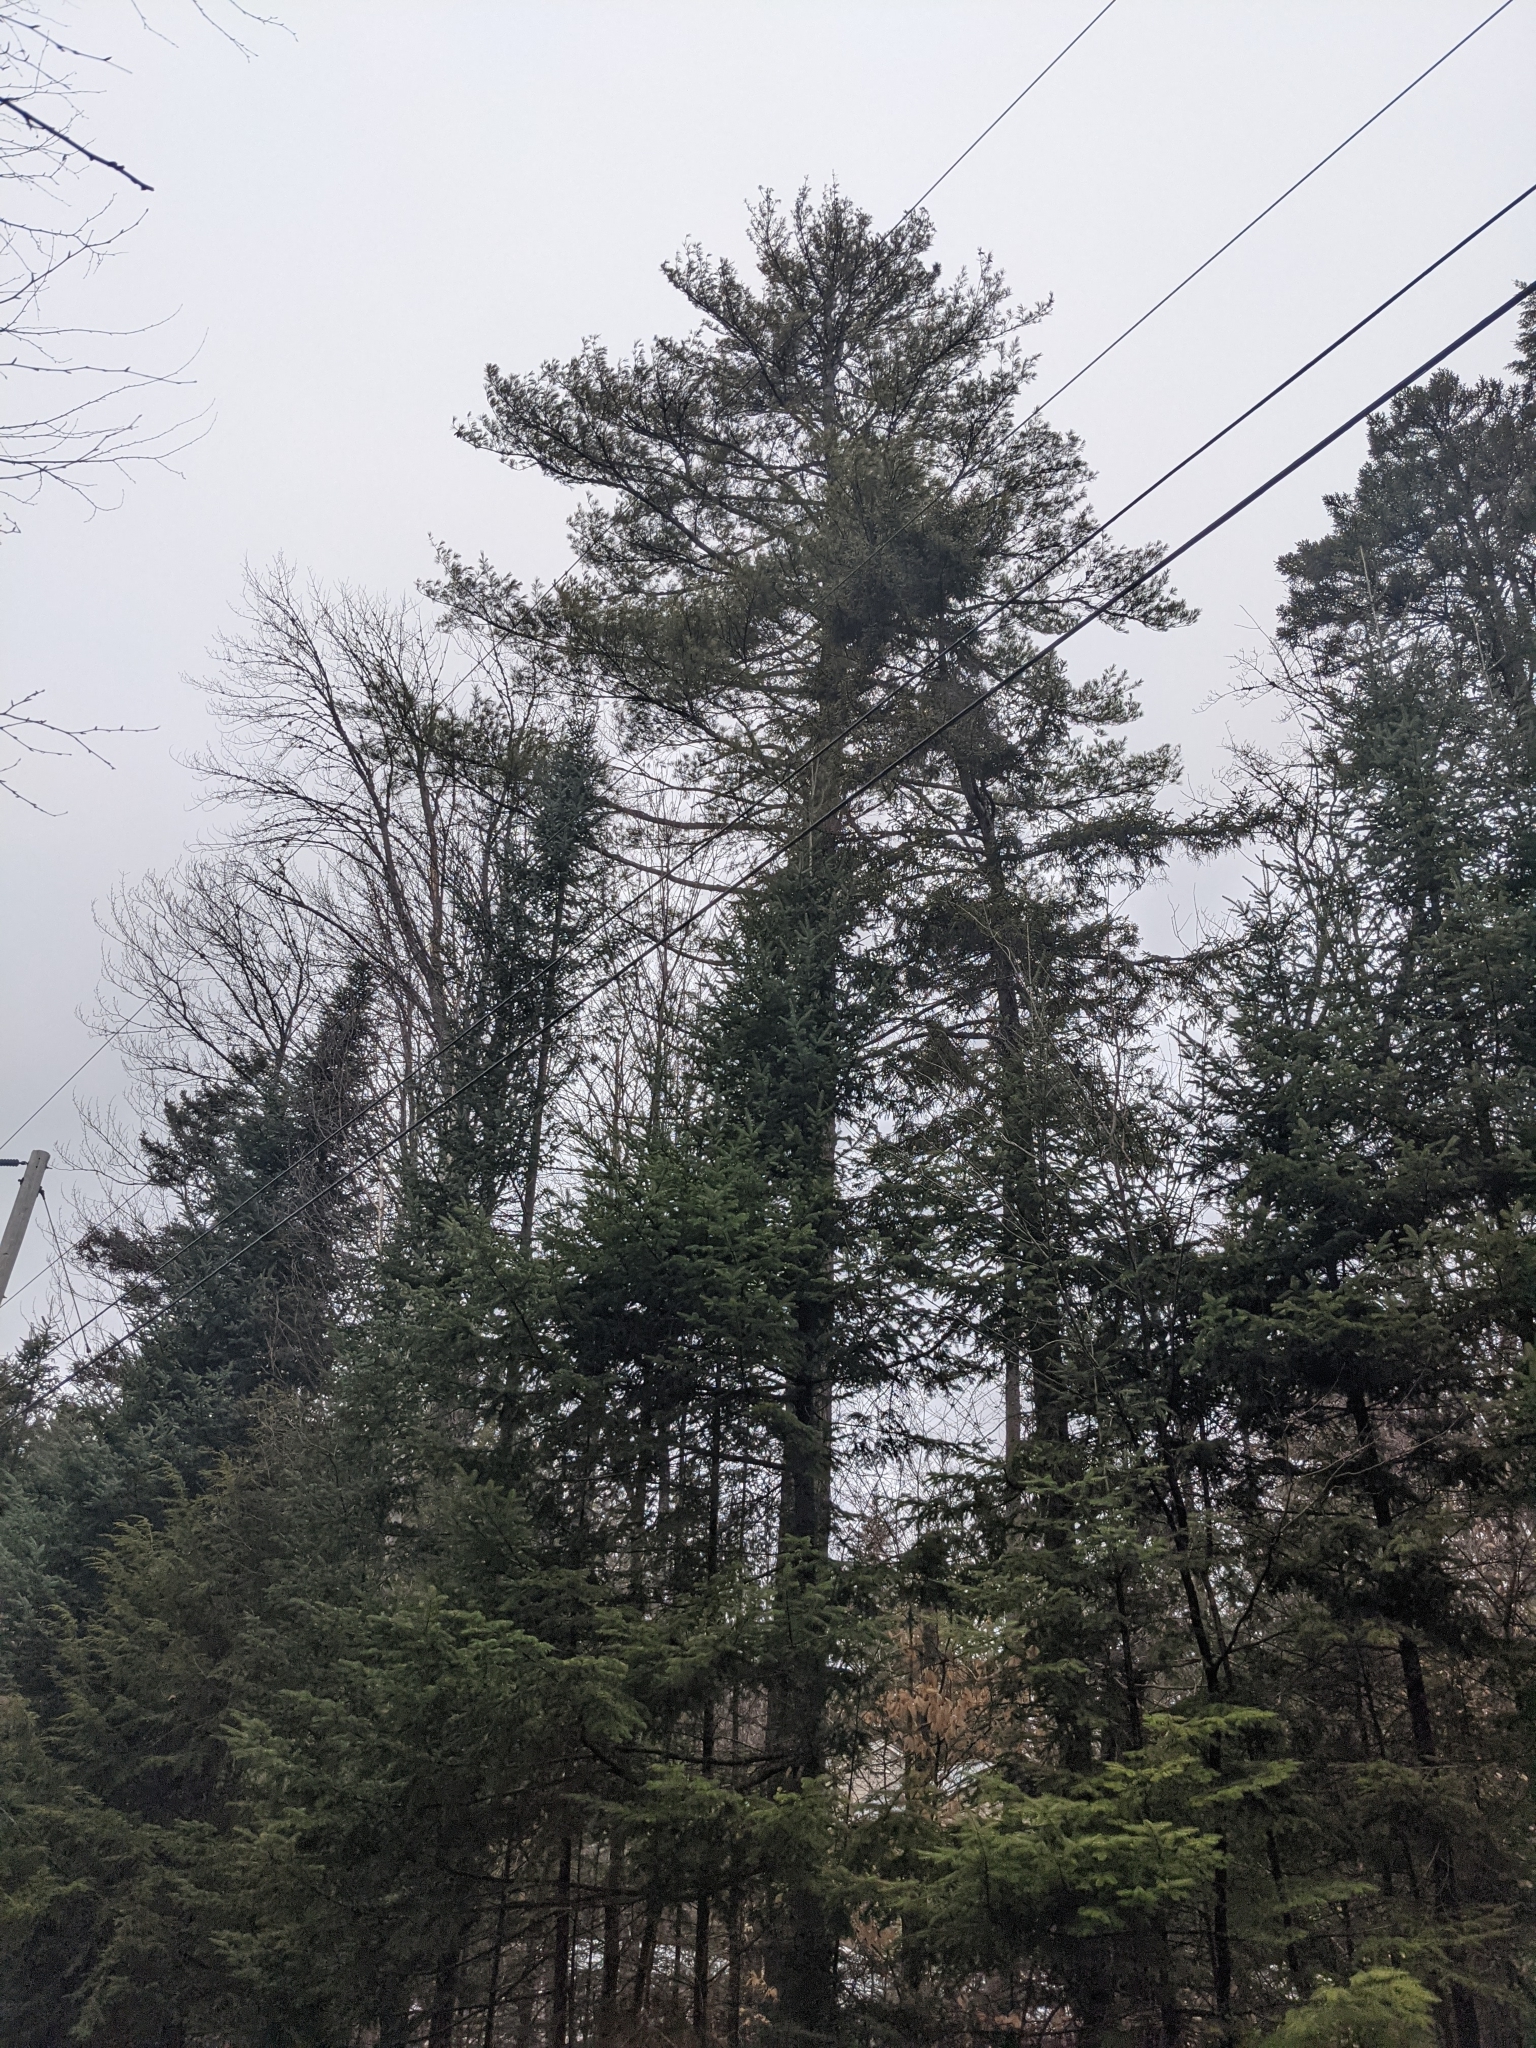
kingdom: Plantae
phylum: Tracheophyta
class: Pinopsida
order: Pinales
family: Pinaceae
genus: Pinus
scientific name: Pinus strobus
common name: Weymouth pine
